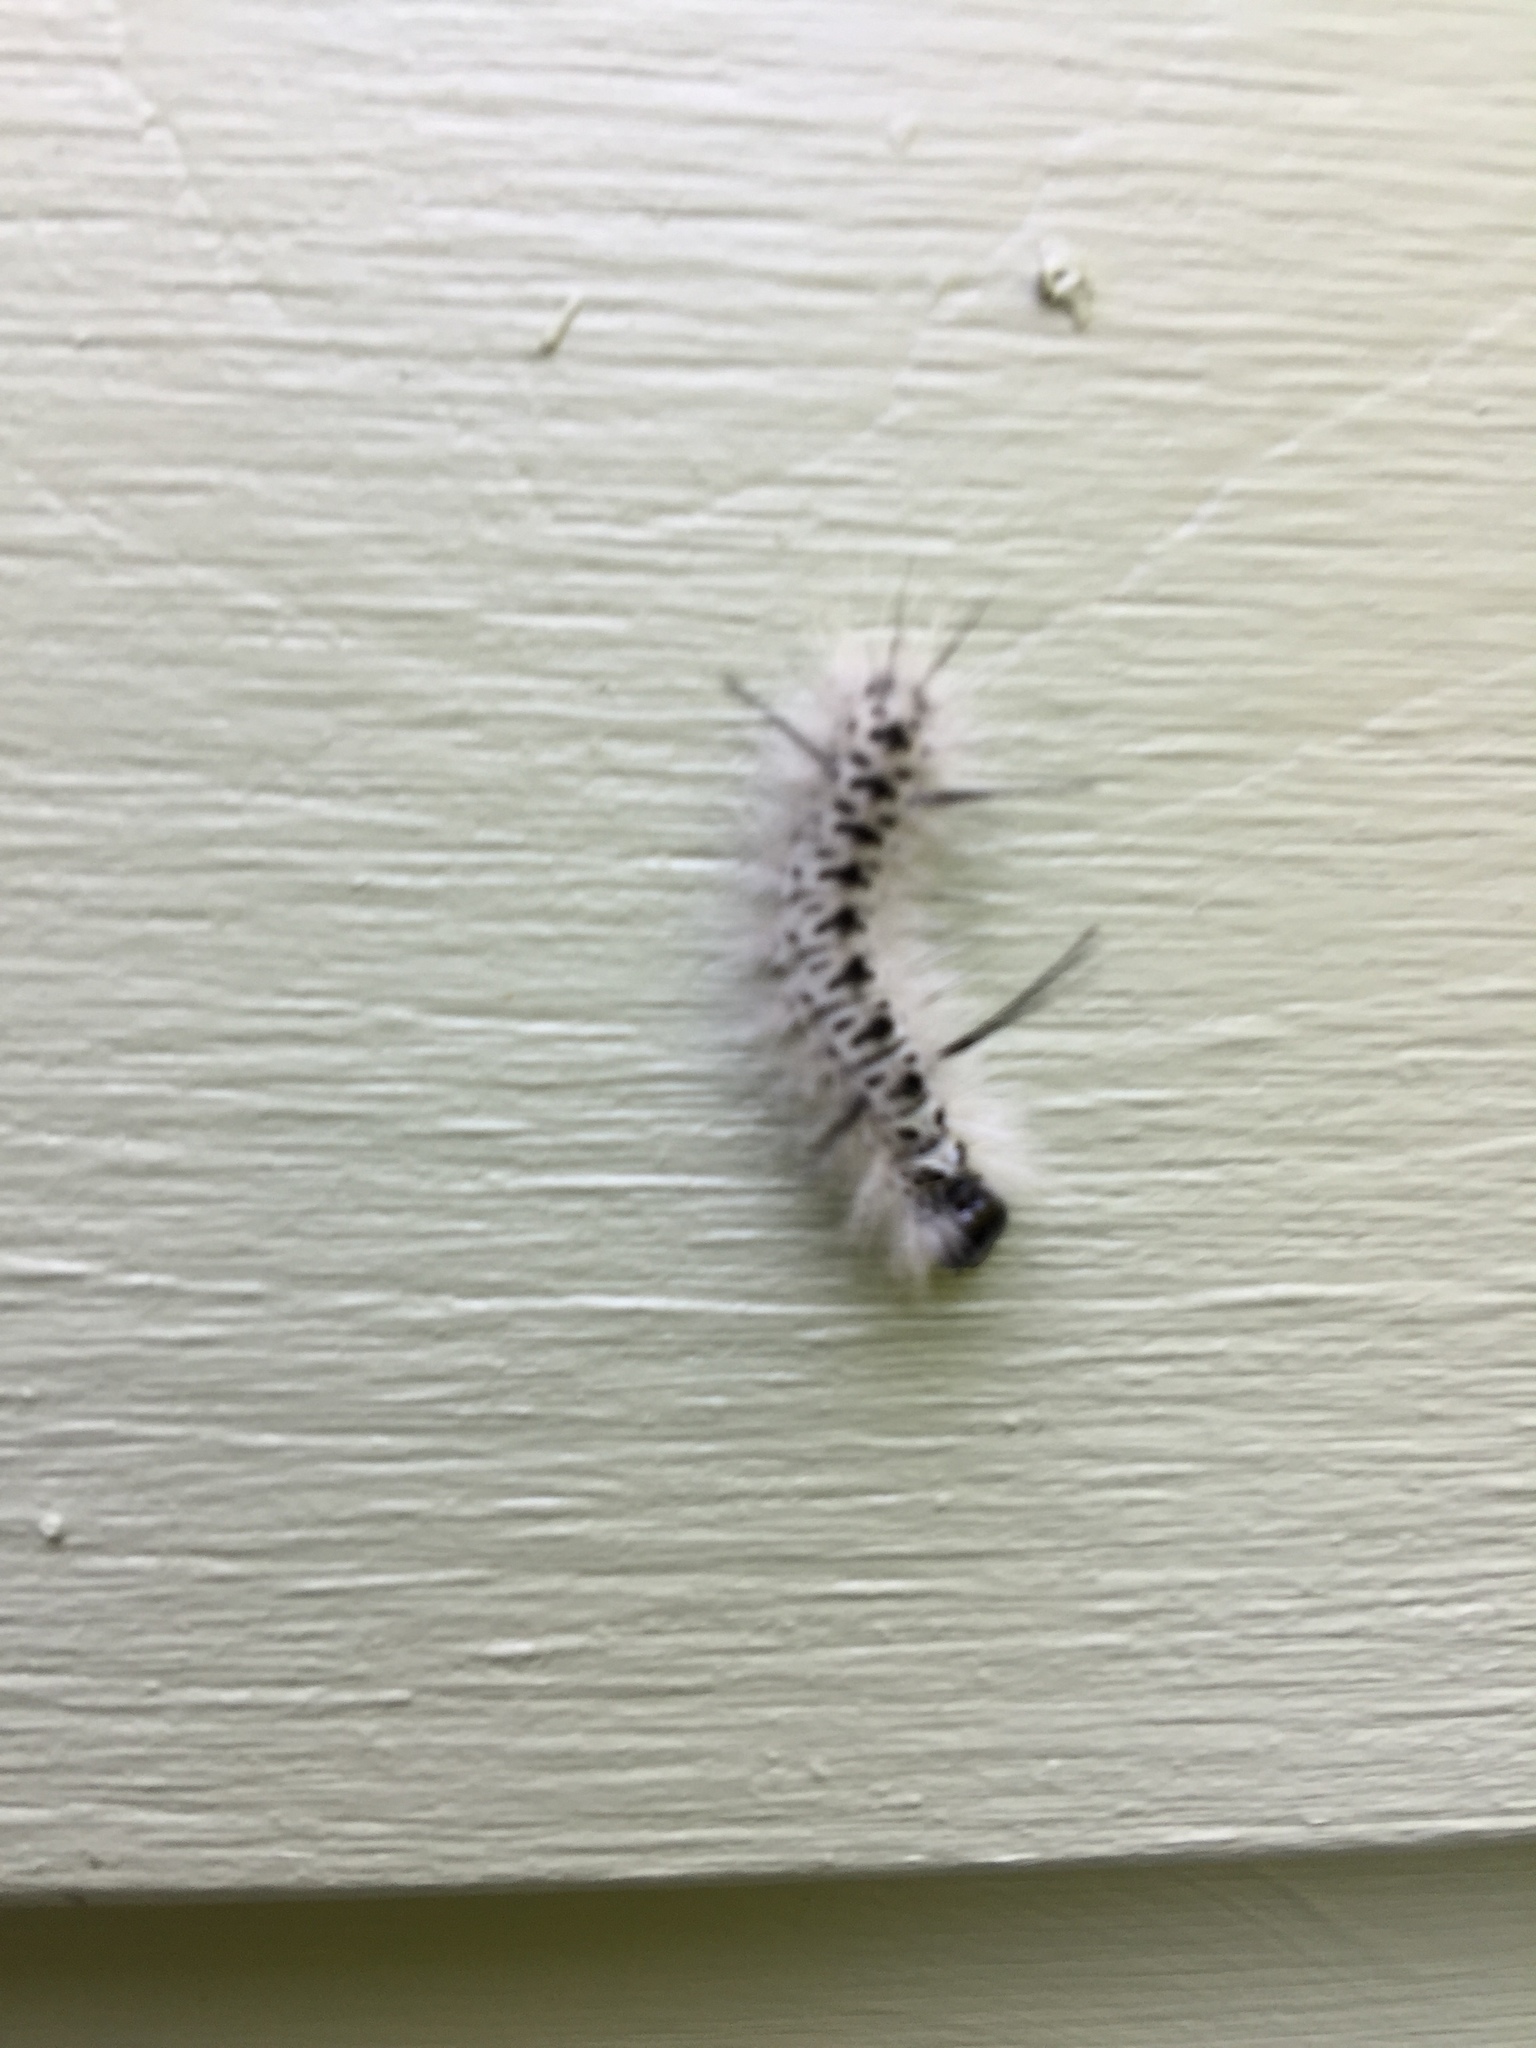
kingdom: Animalia
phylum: Arthropoda
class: Insecta
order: Lepidoptera
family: Erebidae
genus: Lophocampa
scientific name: Lophocampa caryae
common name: Hickory tussock moth
